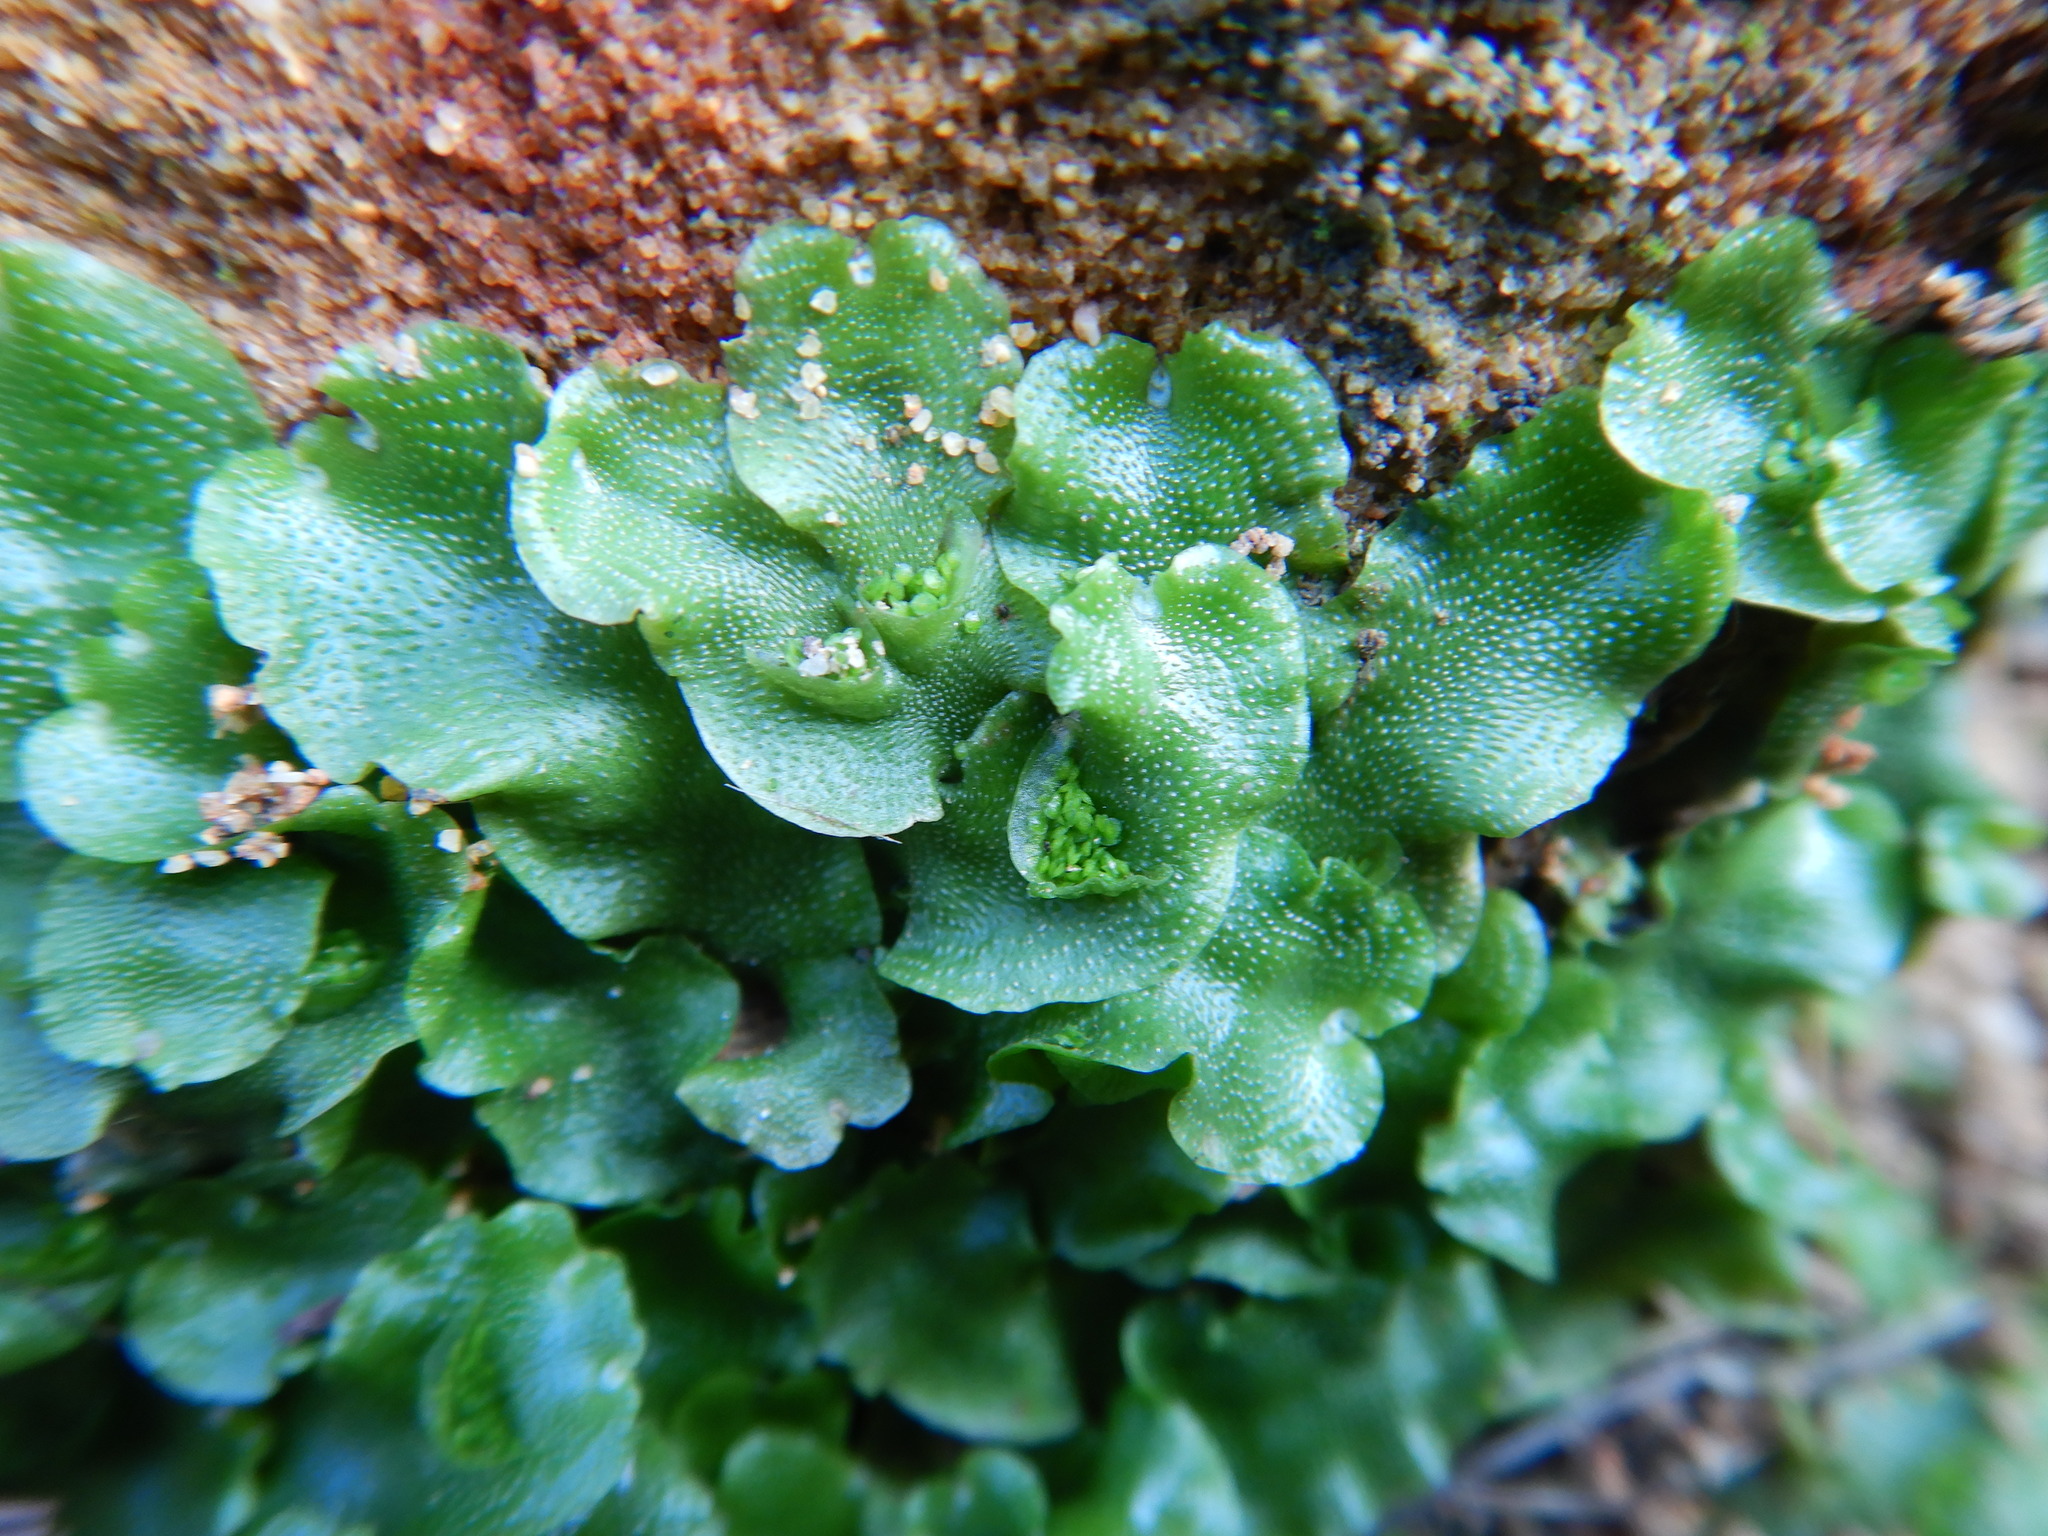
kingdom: Plantae
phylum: Marchantiophyta
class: Marchantiopsida
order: Lunulariales
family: Lunulariaceae
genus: Lunularia
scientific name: Lunularia cruciata
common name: Crescent-cup liverwort
